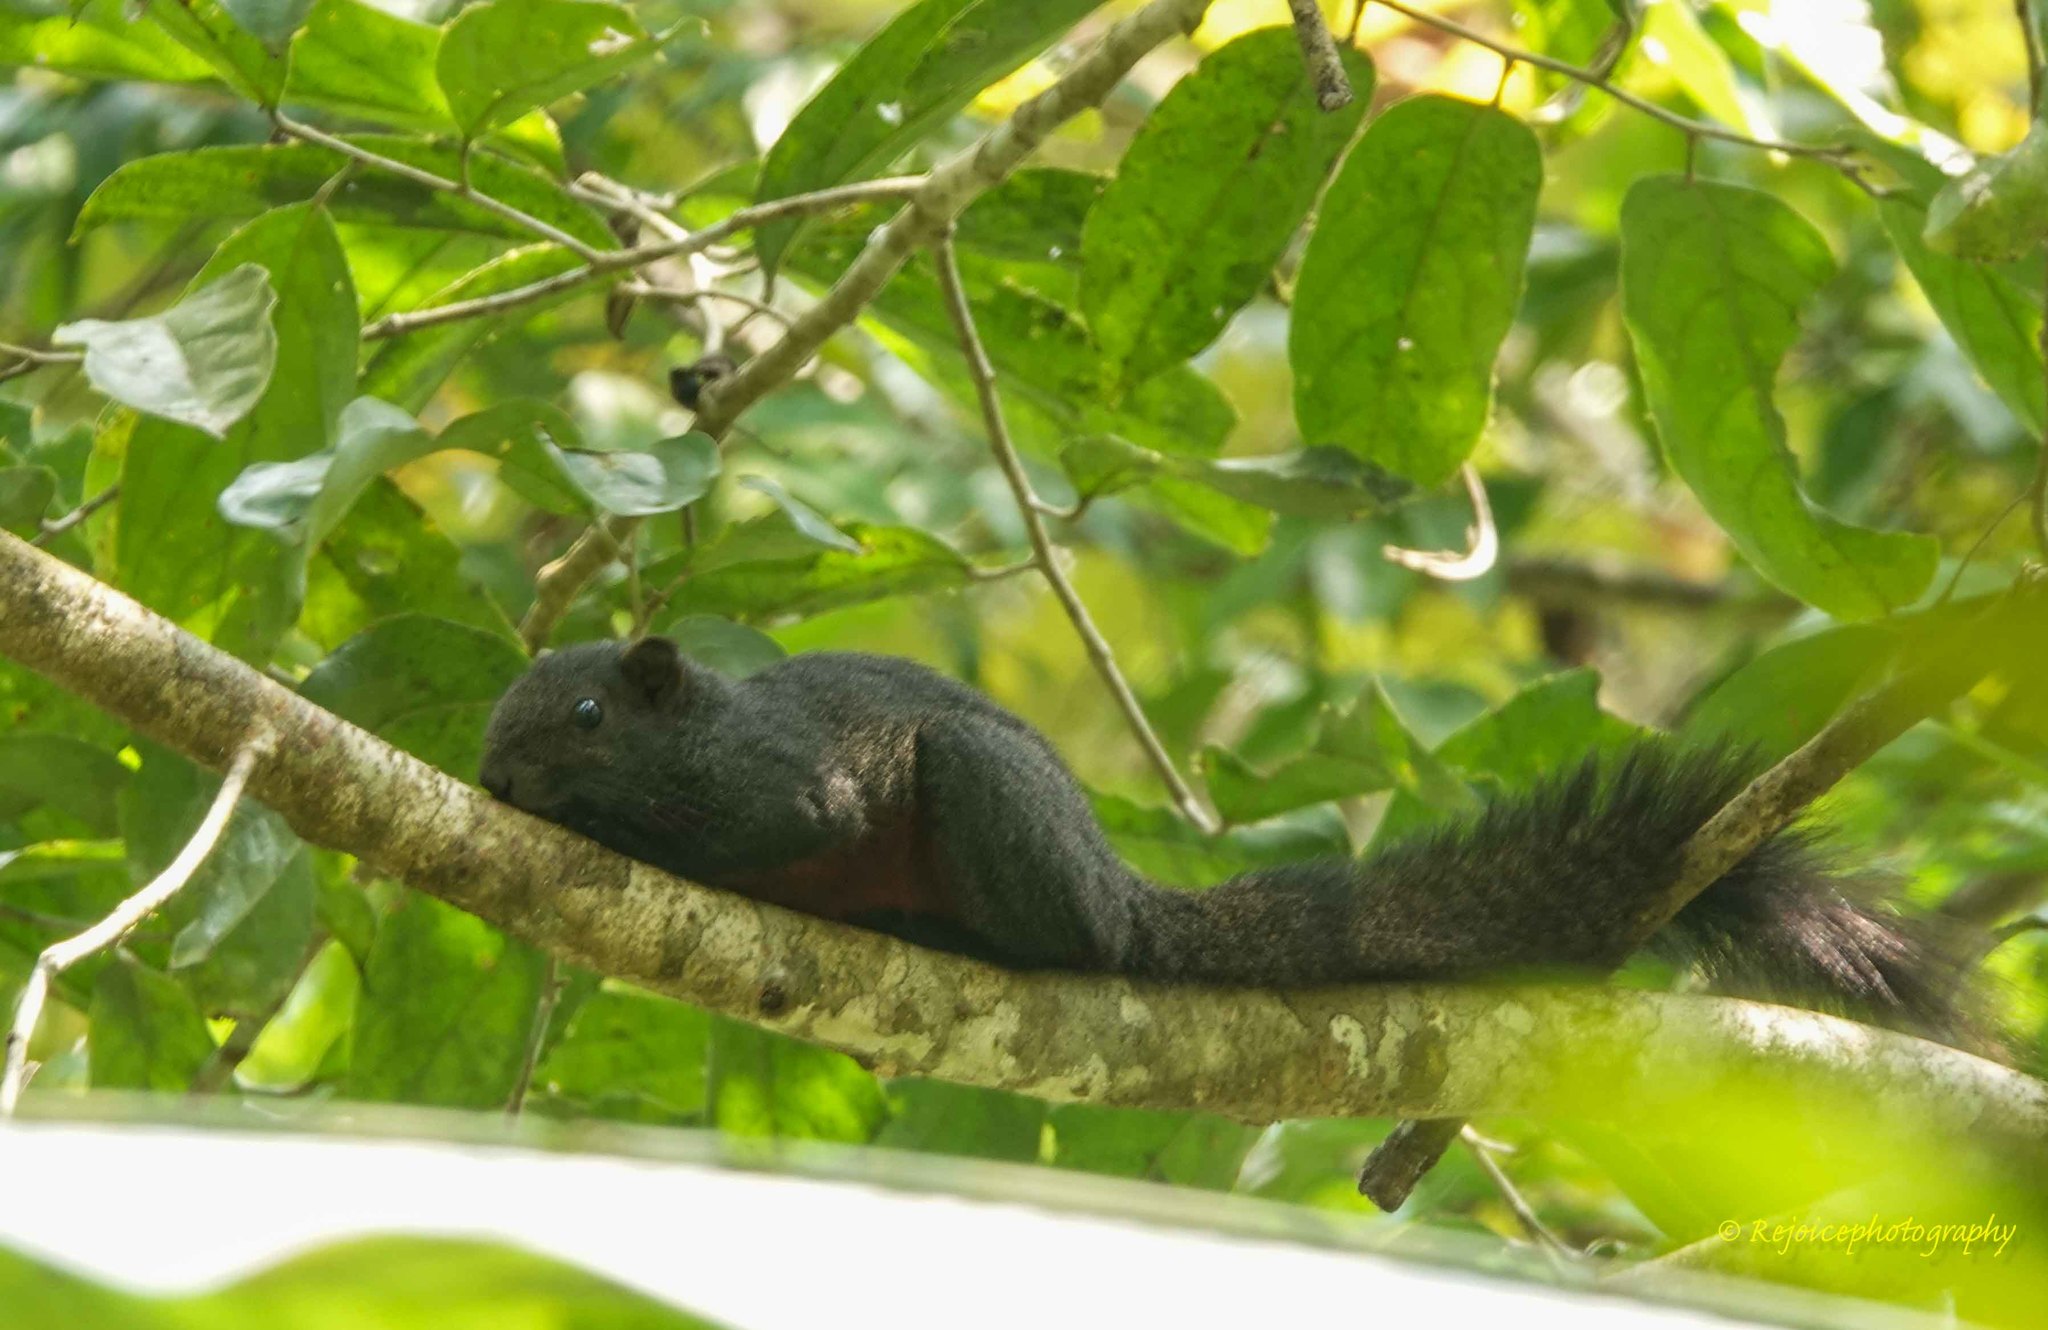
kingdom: Animalia
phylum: Chordata
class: Mammalia
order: Rodentia
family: Sciuridae
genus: Callosciurus
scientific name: Callosciurus erythraeus
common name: Pallas's squirrel
